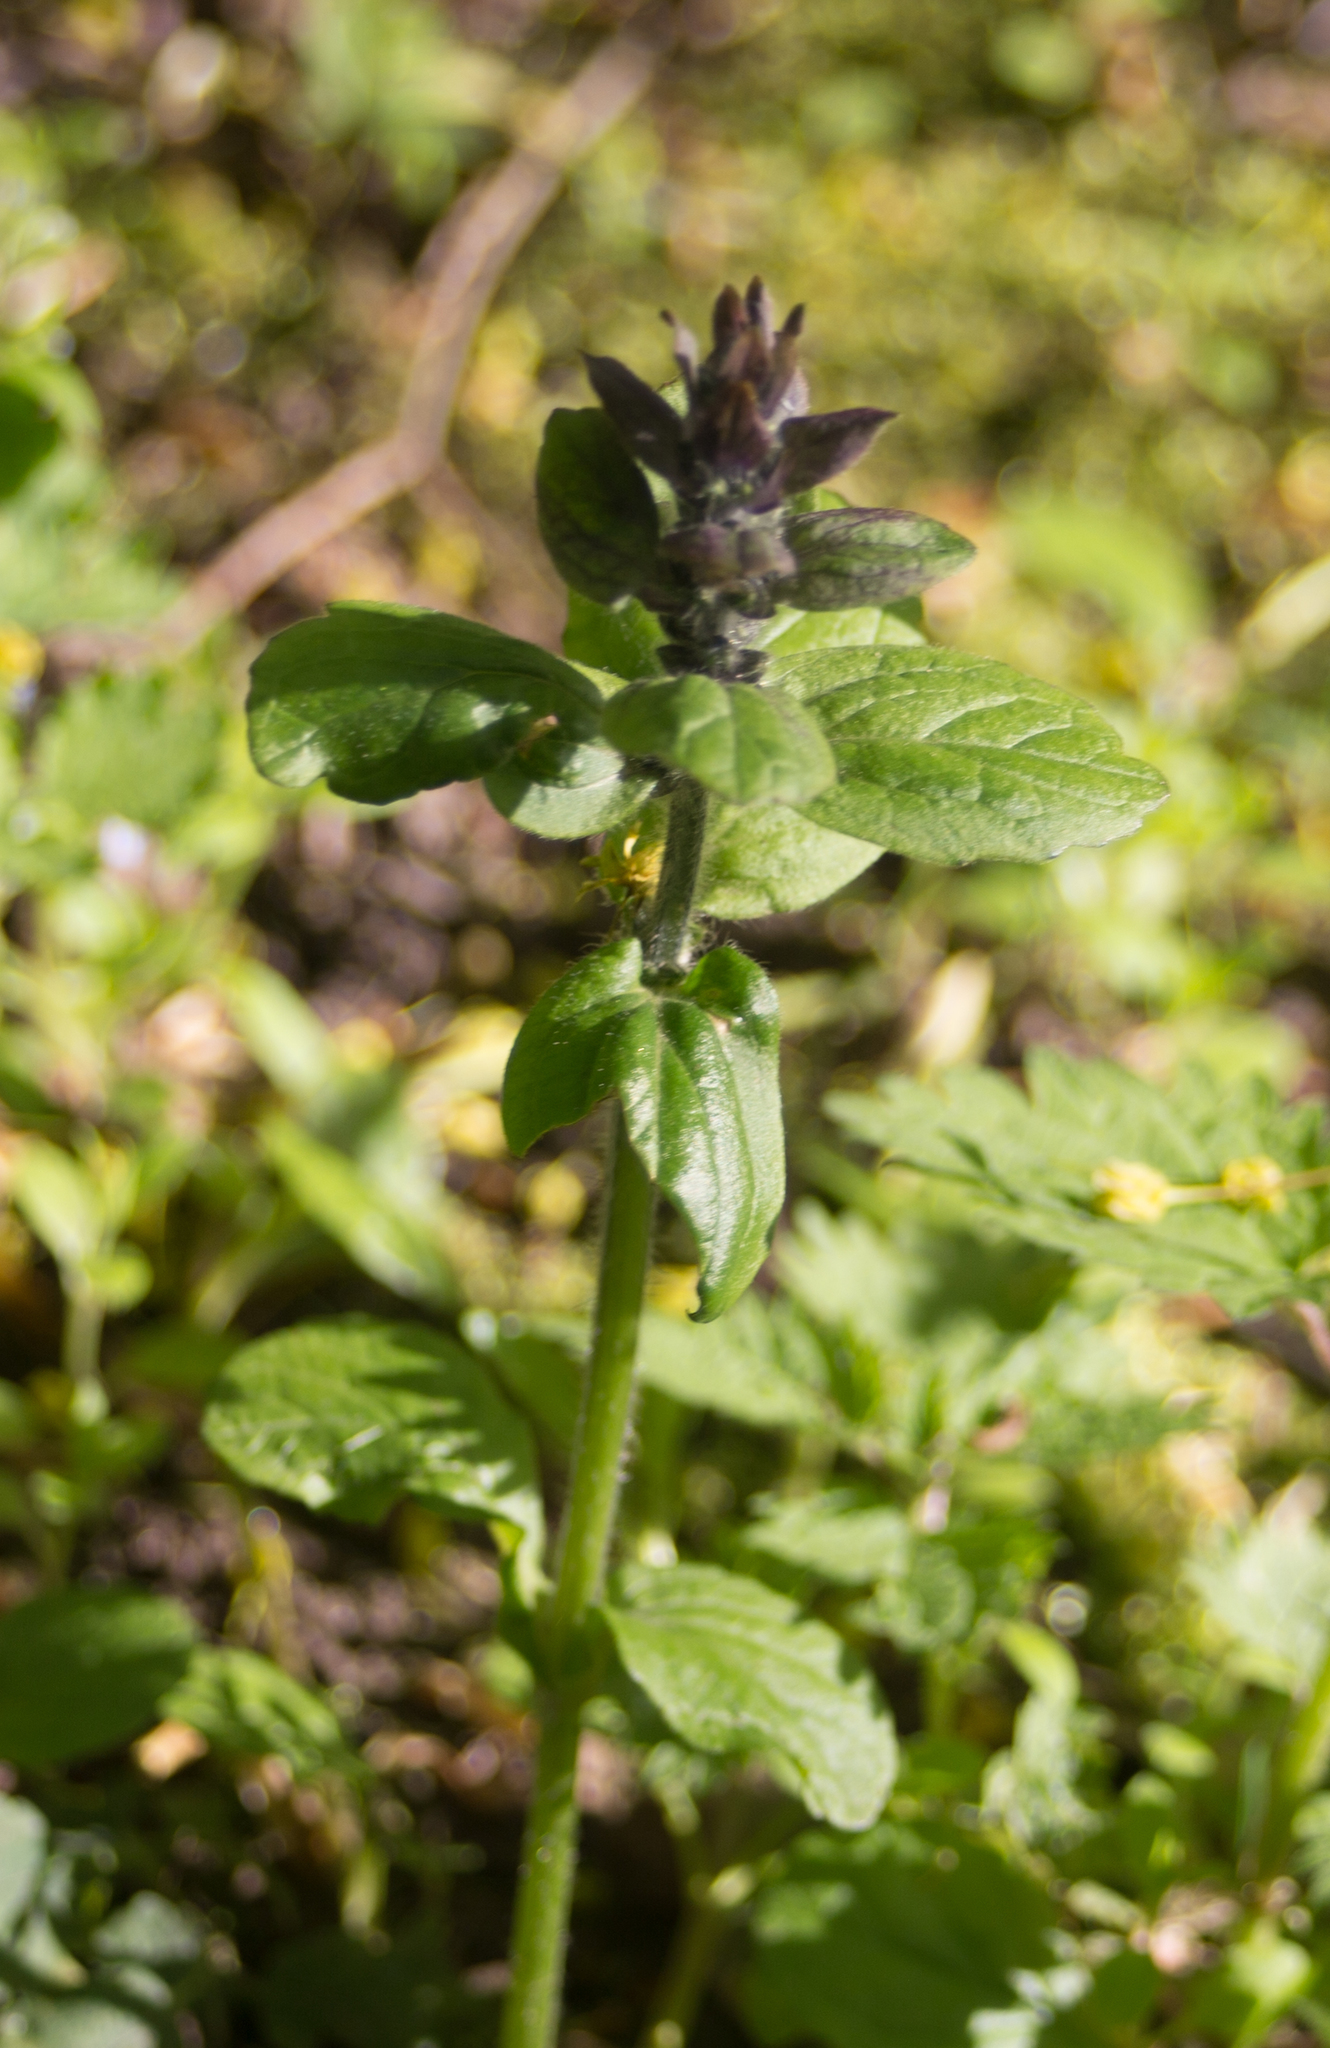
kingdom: Plantae
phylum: Tracheophyta
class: Magnoliopsida
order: Lamiales
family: Lamiaceae
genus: Ajuga
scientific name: Ajuga reptans
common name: Bugle
